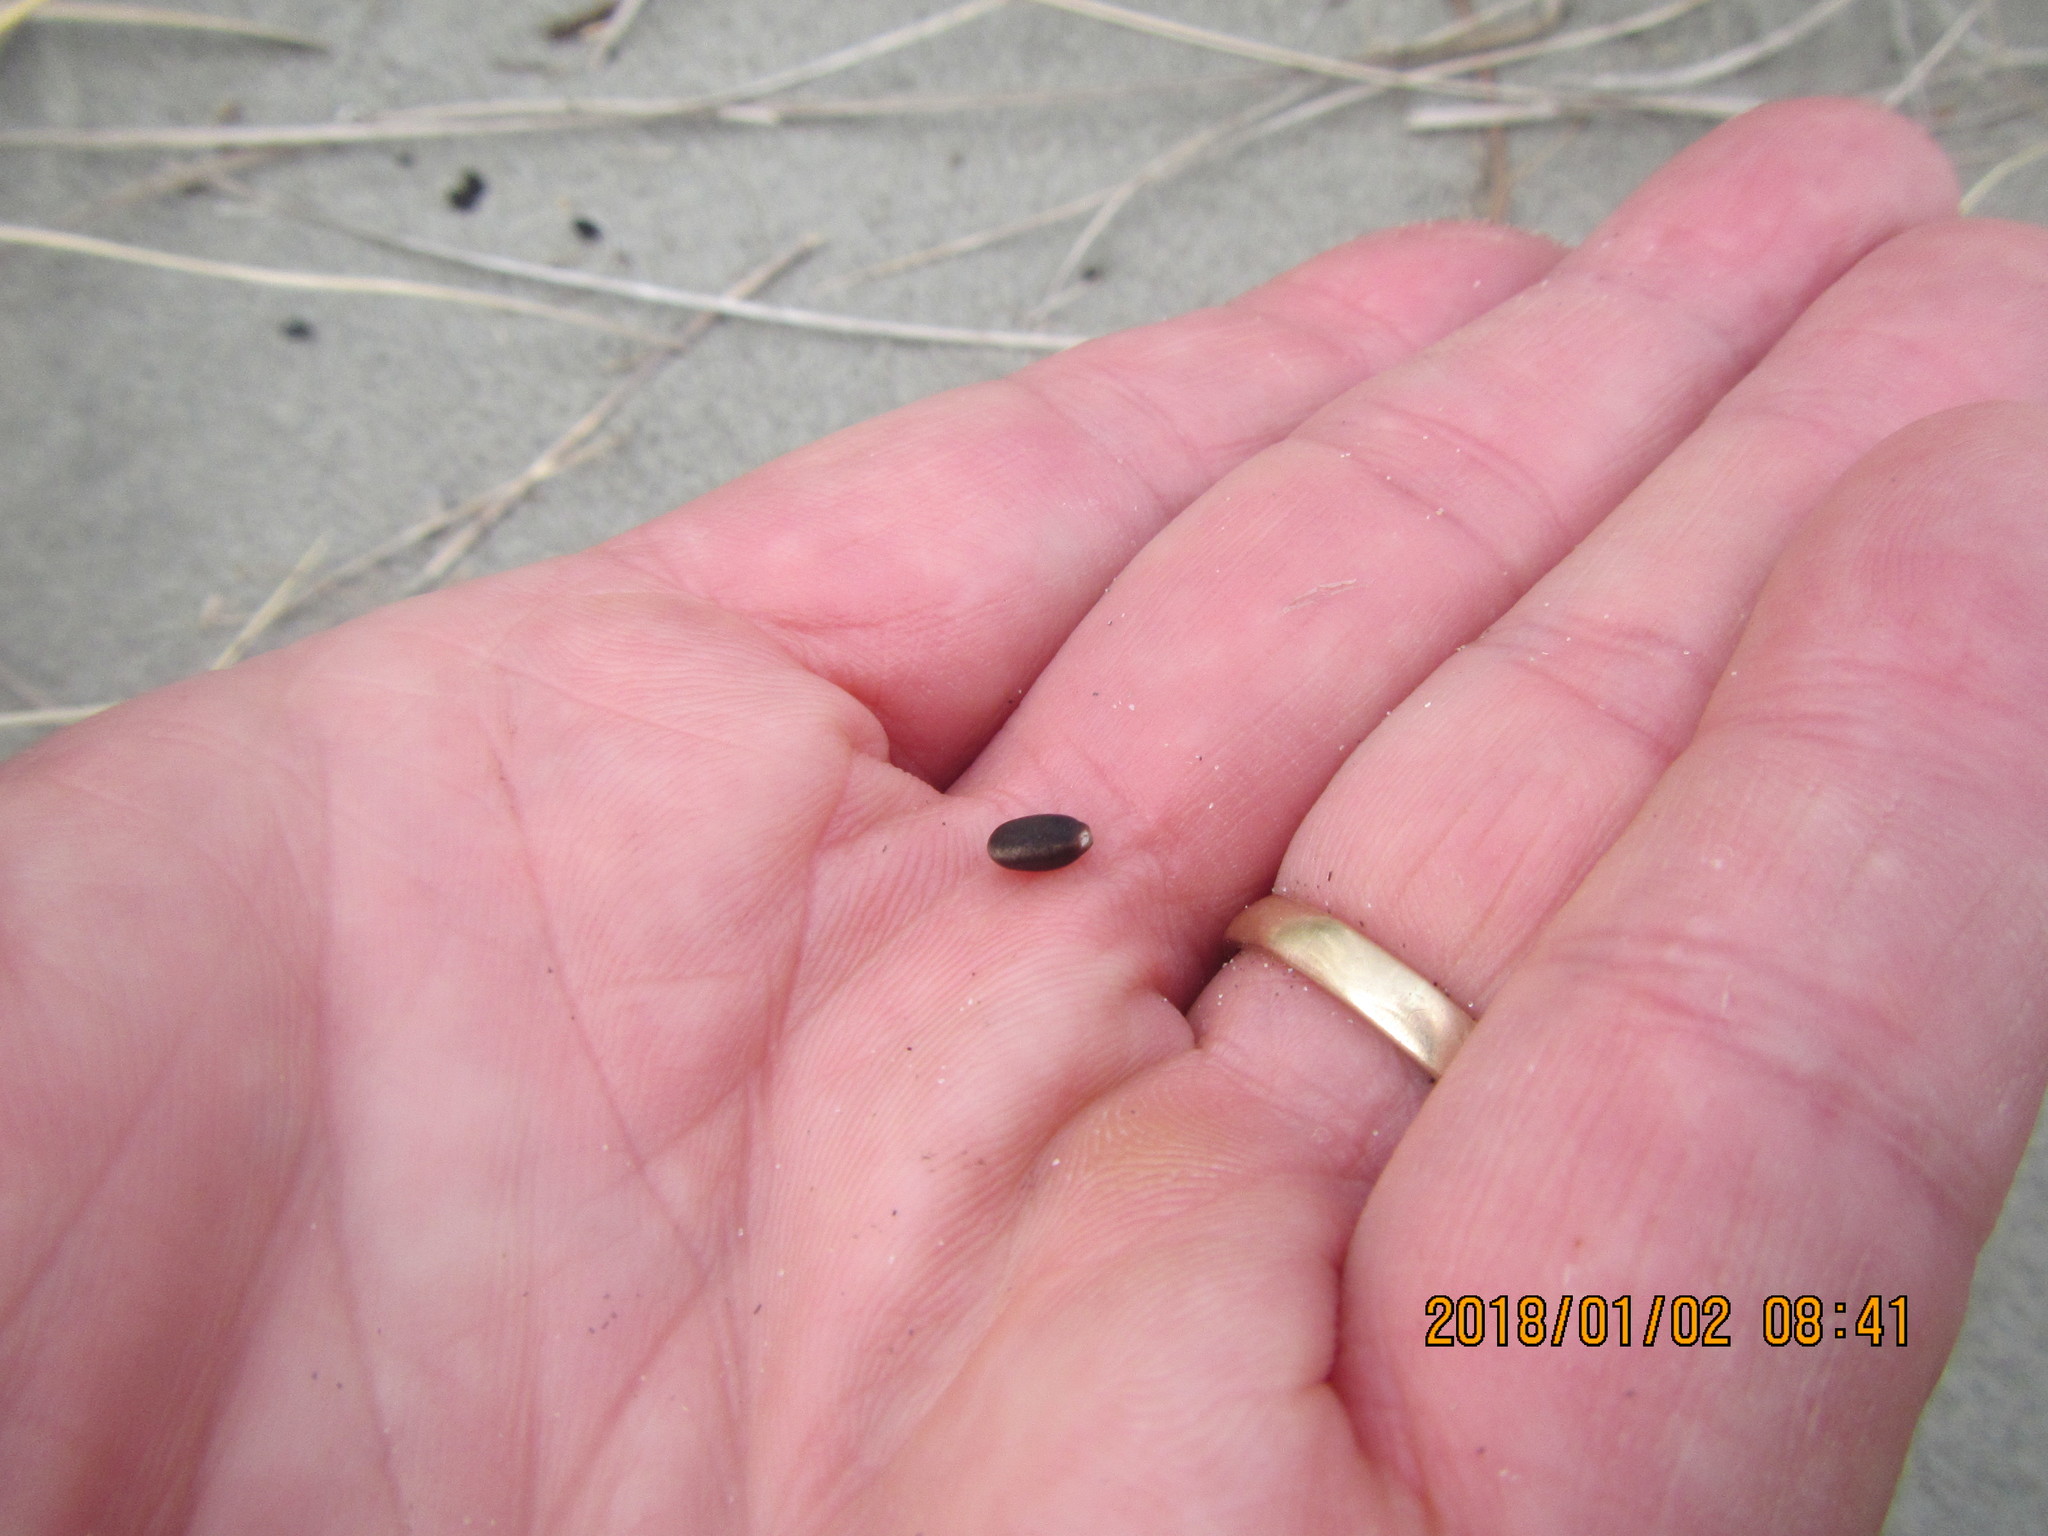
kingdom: Plantae
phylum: Tracheophyta
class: Magnoliopsida
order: Fabales
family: Fabaceae
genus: Lupinus
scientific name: Lupinus arboreus
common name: Yellow bush lupine
